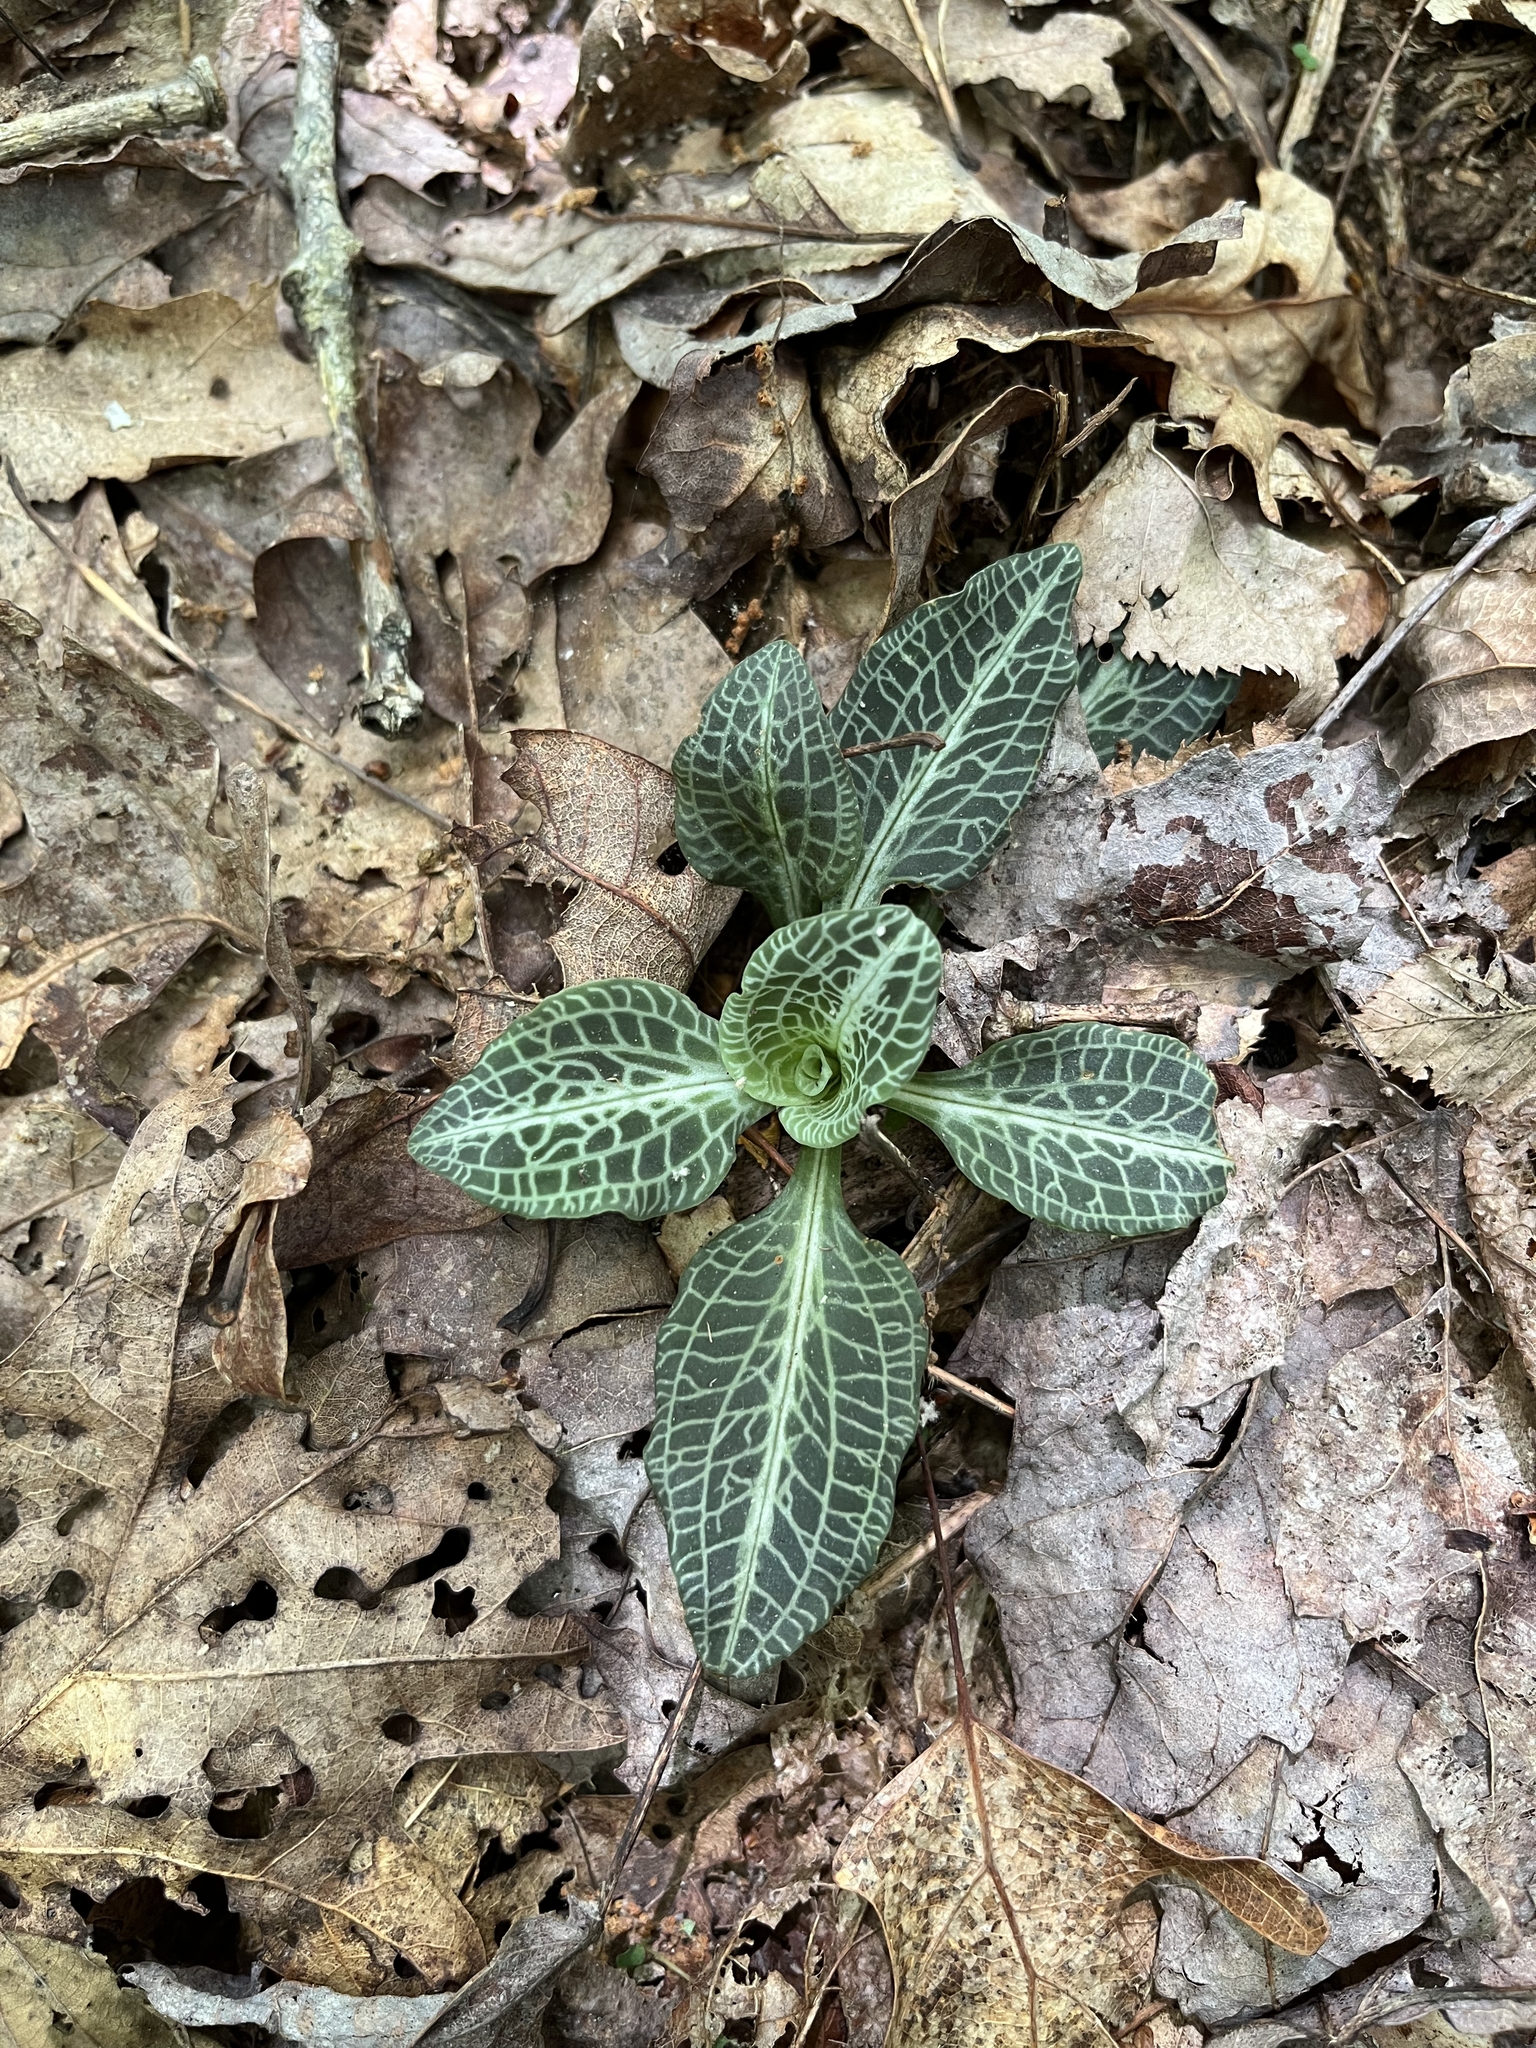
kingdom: Plantae
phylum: Tracheophyta
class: Liliopsida
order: Asparagales
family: Orchidaceae
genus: Goodyera
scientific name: Goodyera pubescens
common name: Downy rattlesnake-plantain
